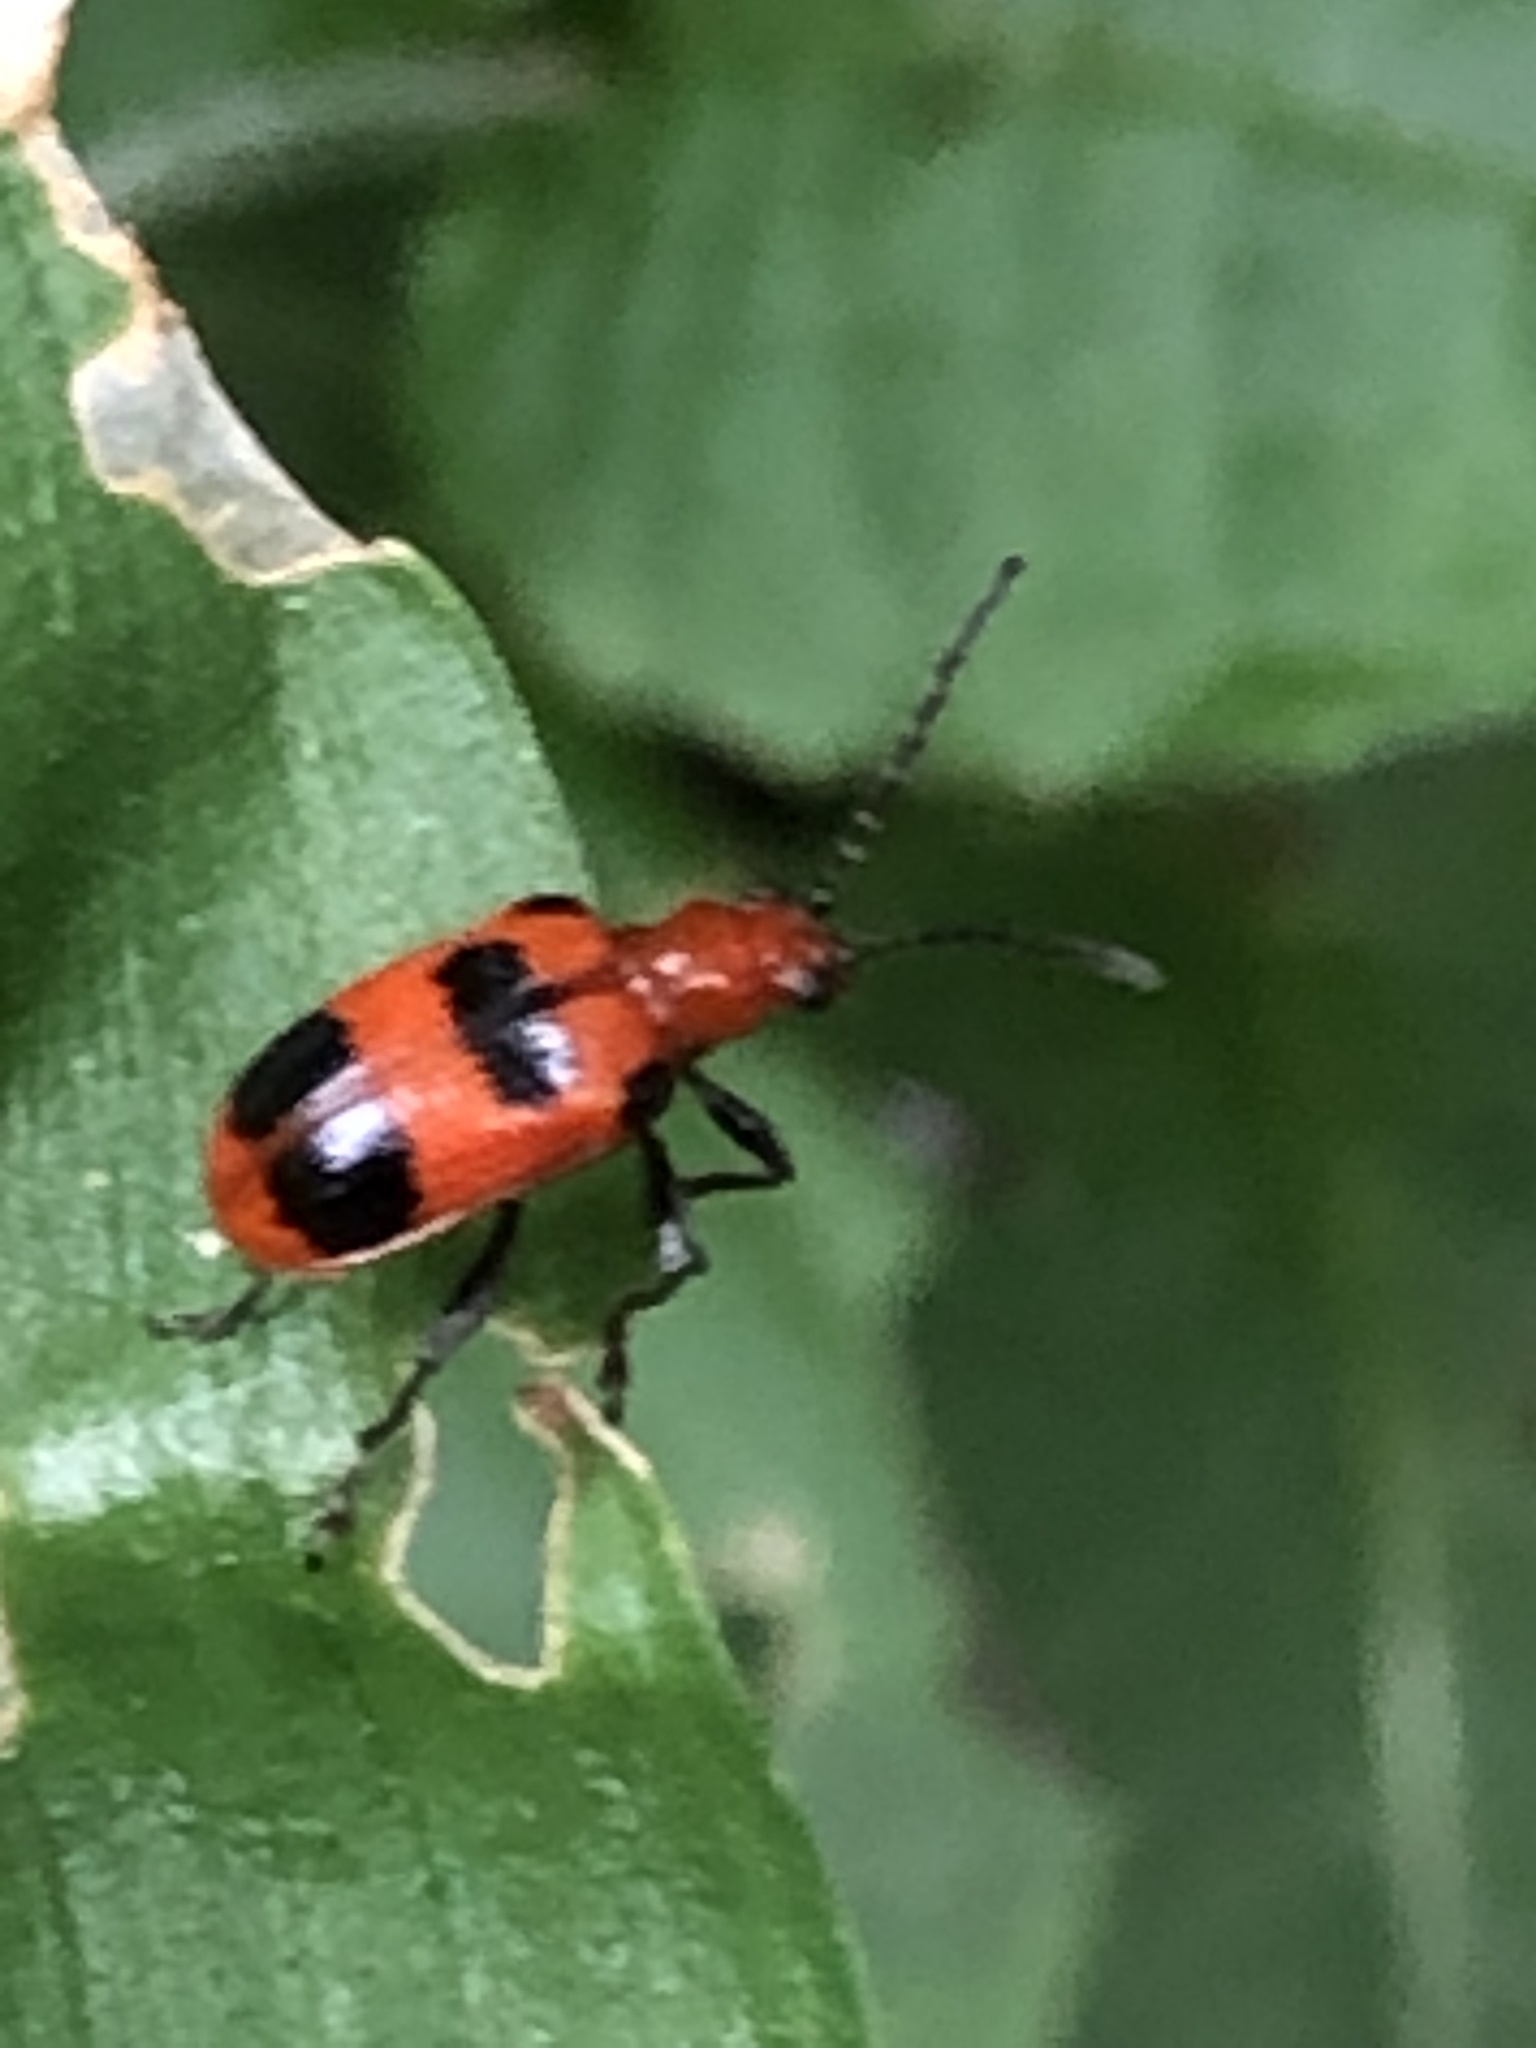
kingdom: Animalia
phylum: Arthropoda
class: Insecta
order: Coleoptera
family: Chrysomelidae
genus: Neolema
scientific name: Neolema sexpunctata
